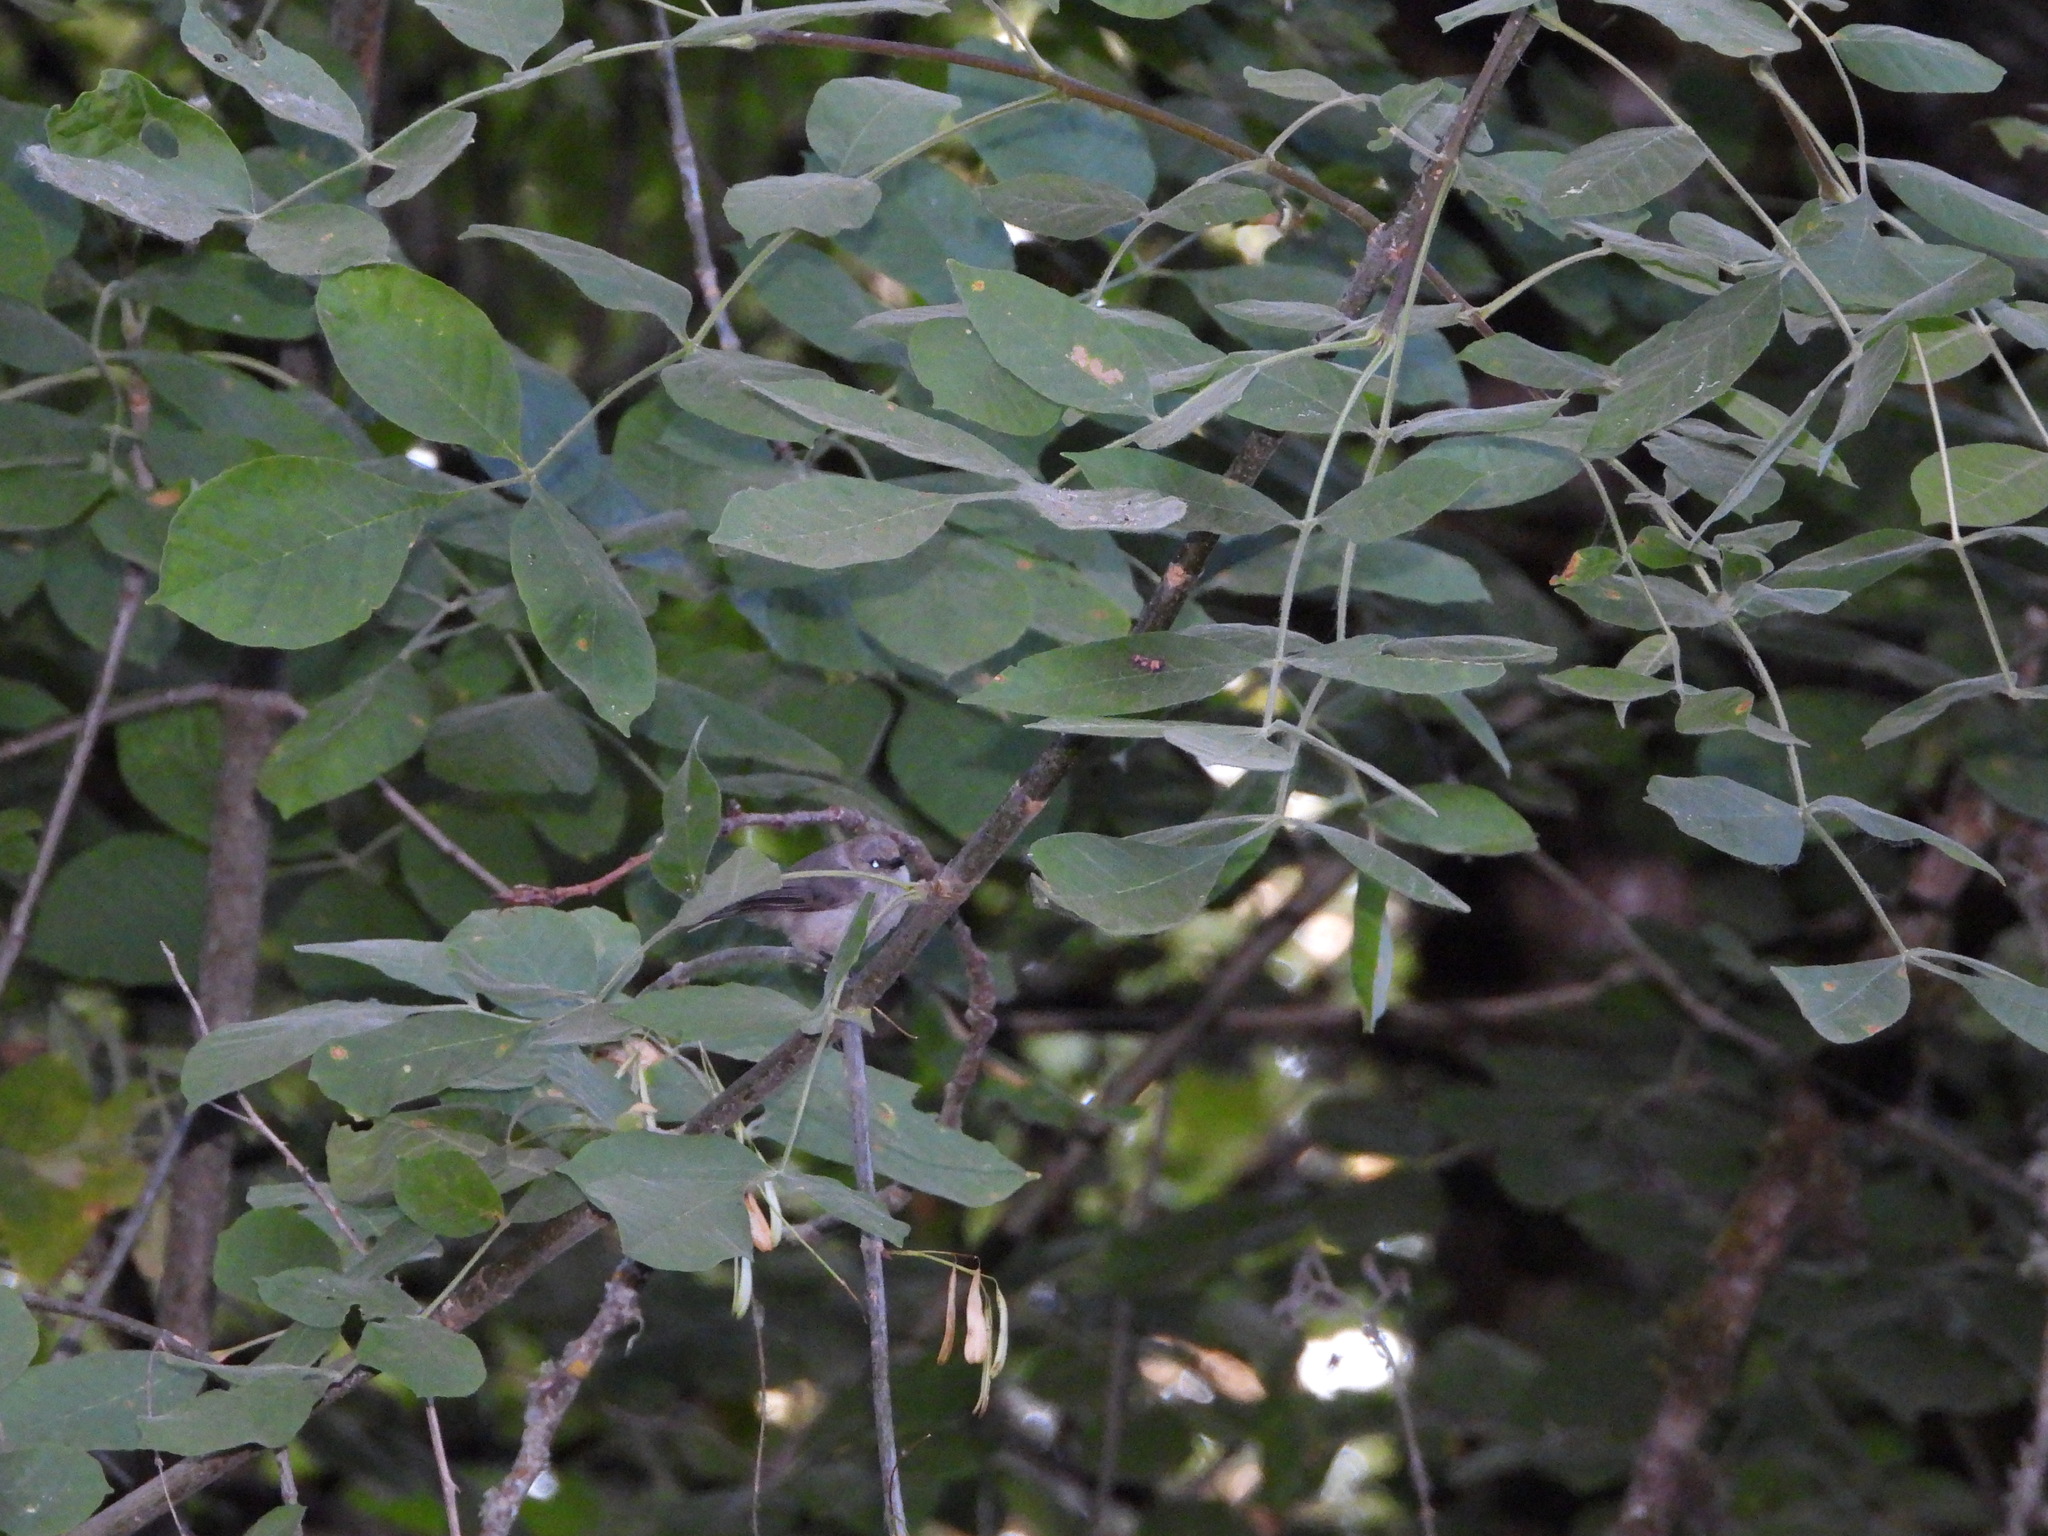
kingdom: Plantae
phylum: Tracheophyta
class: Magnoliopsida
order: Lamiales
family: Oleaceae
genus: Fraxinus
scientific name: Fraxinus latifolia
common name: Oregon ash
